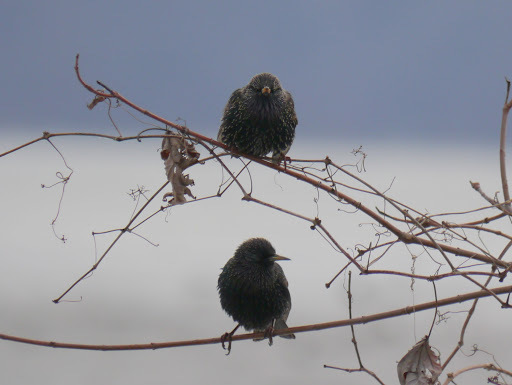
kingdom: Animalia
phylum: Chordata
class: Aves
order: Passeriformes
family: Sturnidae
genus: Sturnus
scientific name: Sturnus vulgaris
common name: Common starling
